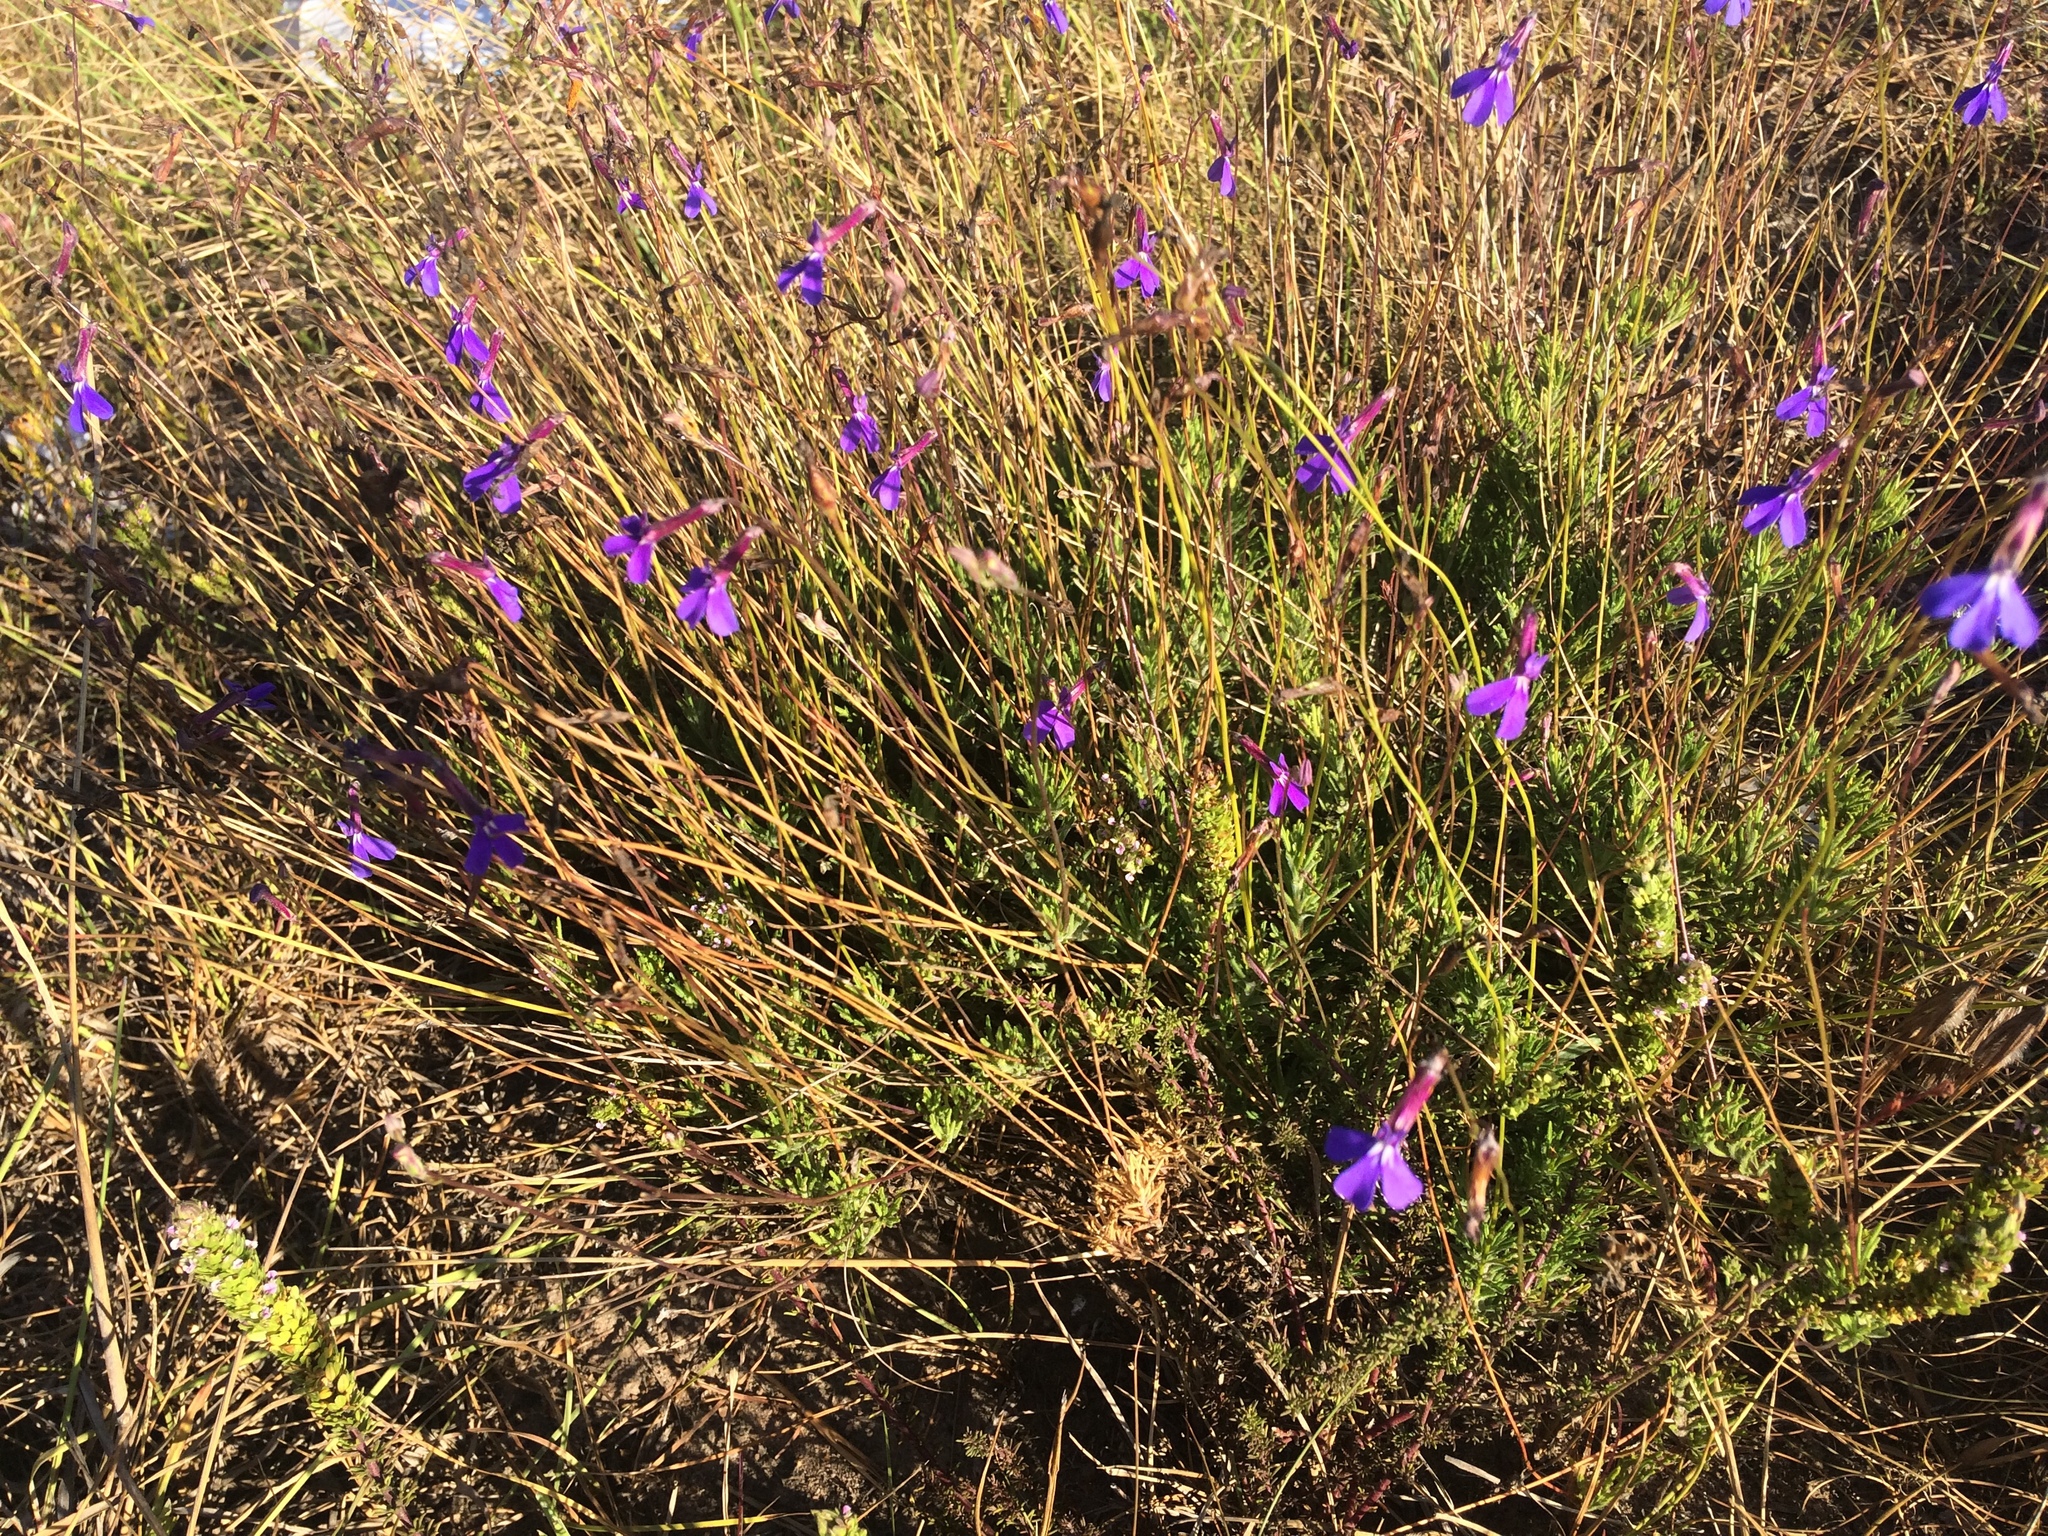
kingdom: Plantae
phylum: Tracheophyta
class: Magnoliopsida
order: Asterales
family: Campanulaceae
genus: Lobelia
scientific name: Lobelia tomentosa
